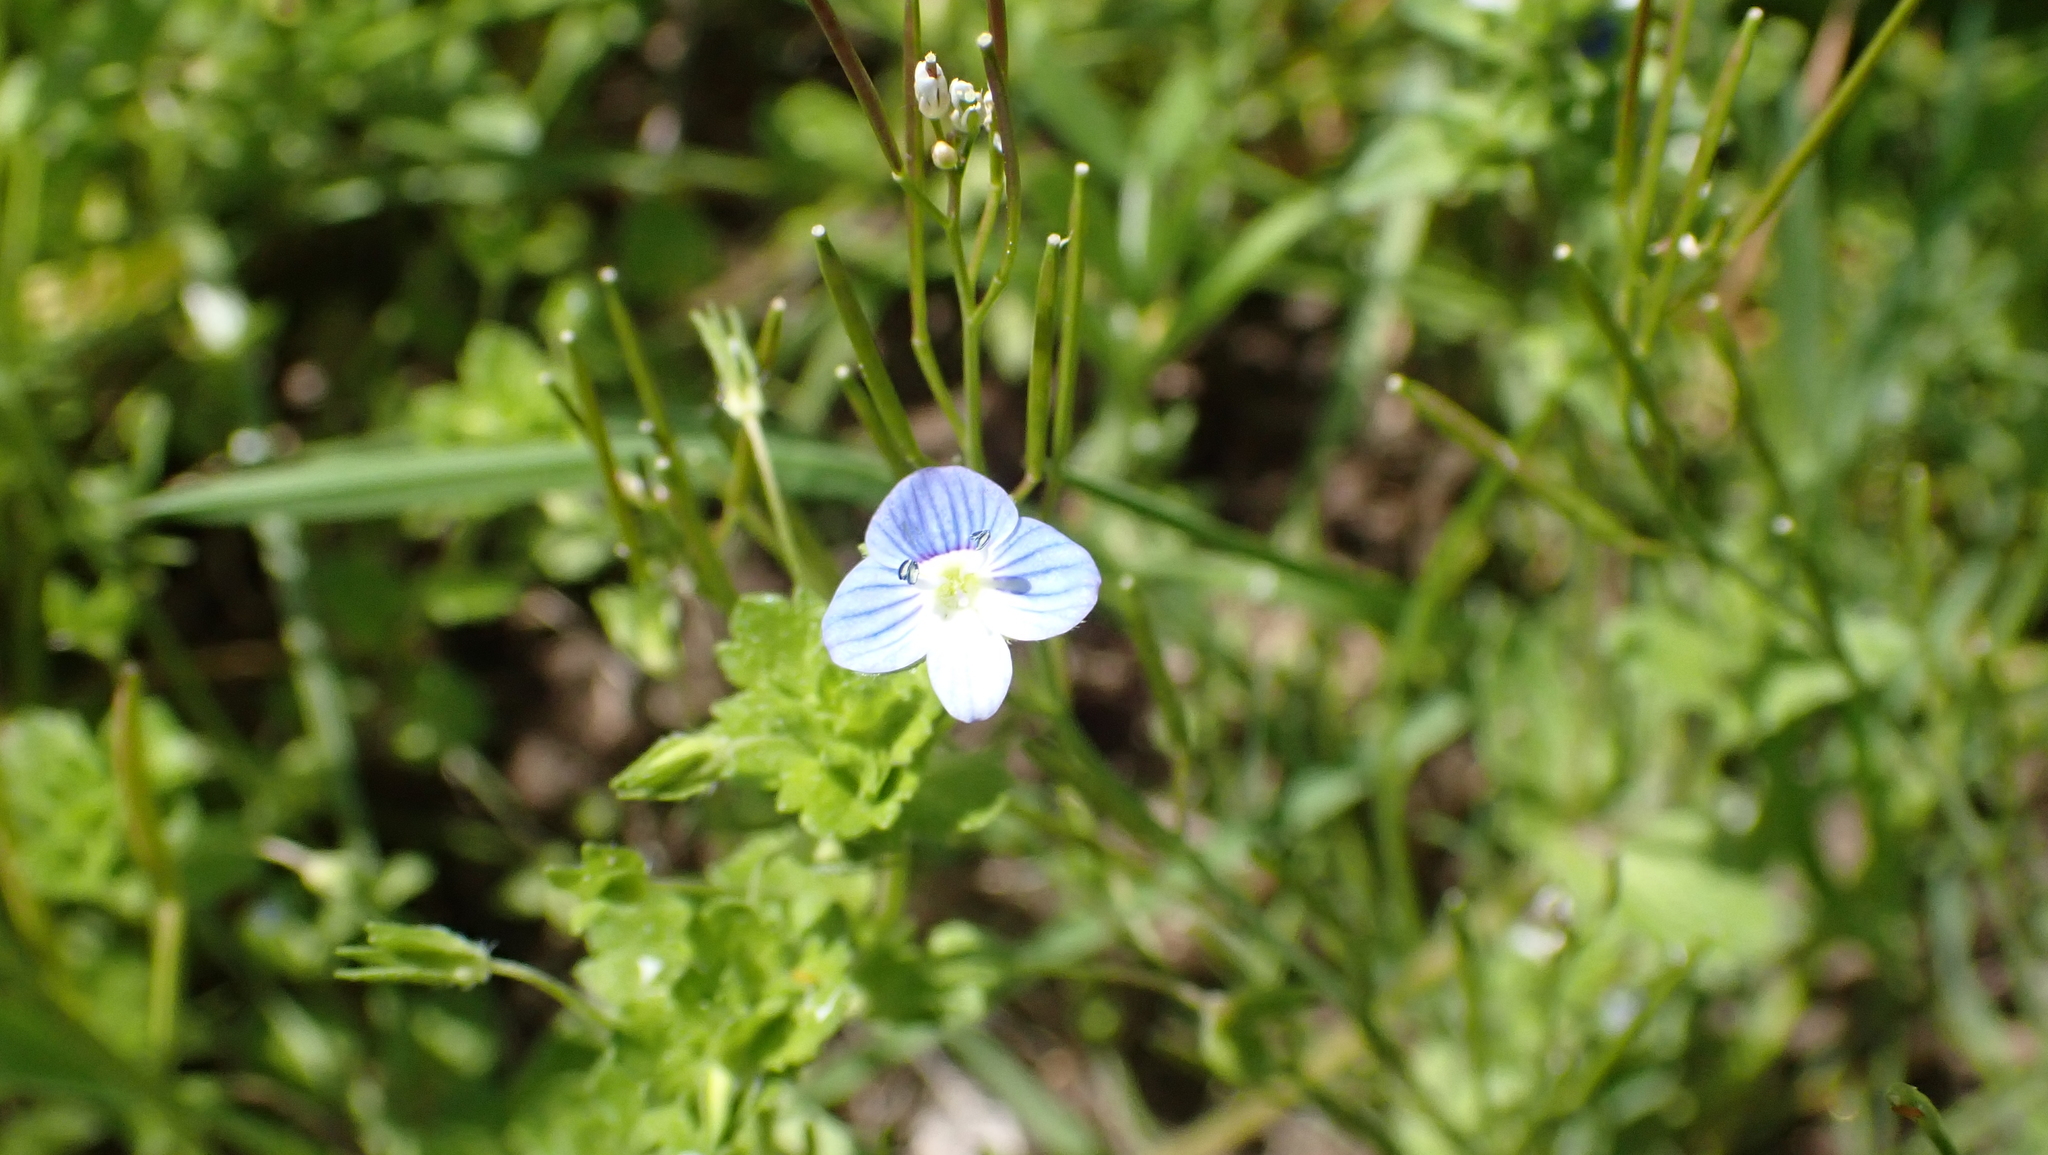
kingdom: Plantae
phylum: Tracheophyta
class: Magnoliopsida
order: Lamiales
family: Plantaginaceae
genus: Veronica
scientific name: Veronica persica
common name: Common field-speedwell
